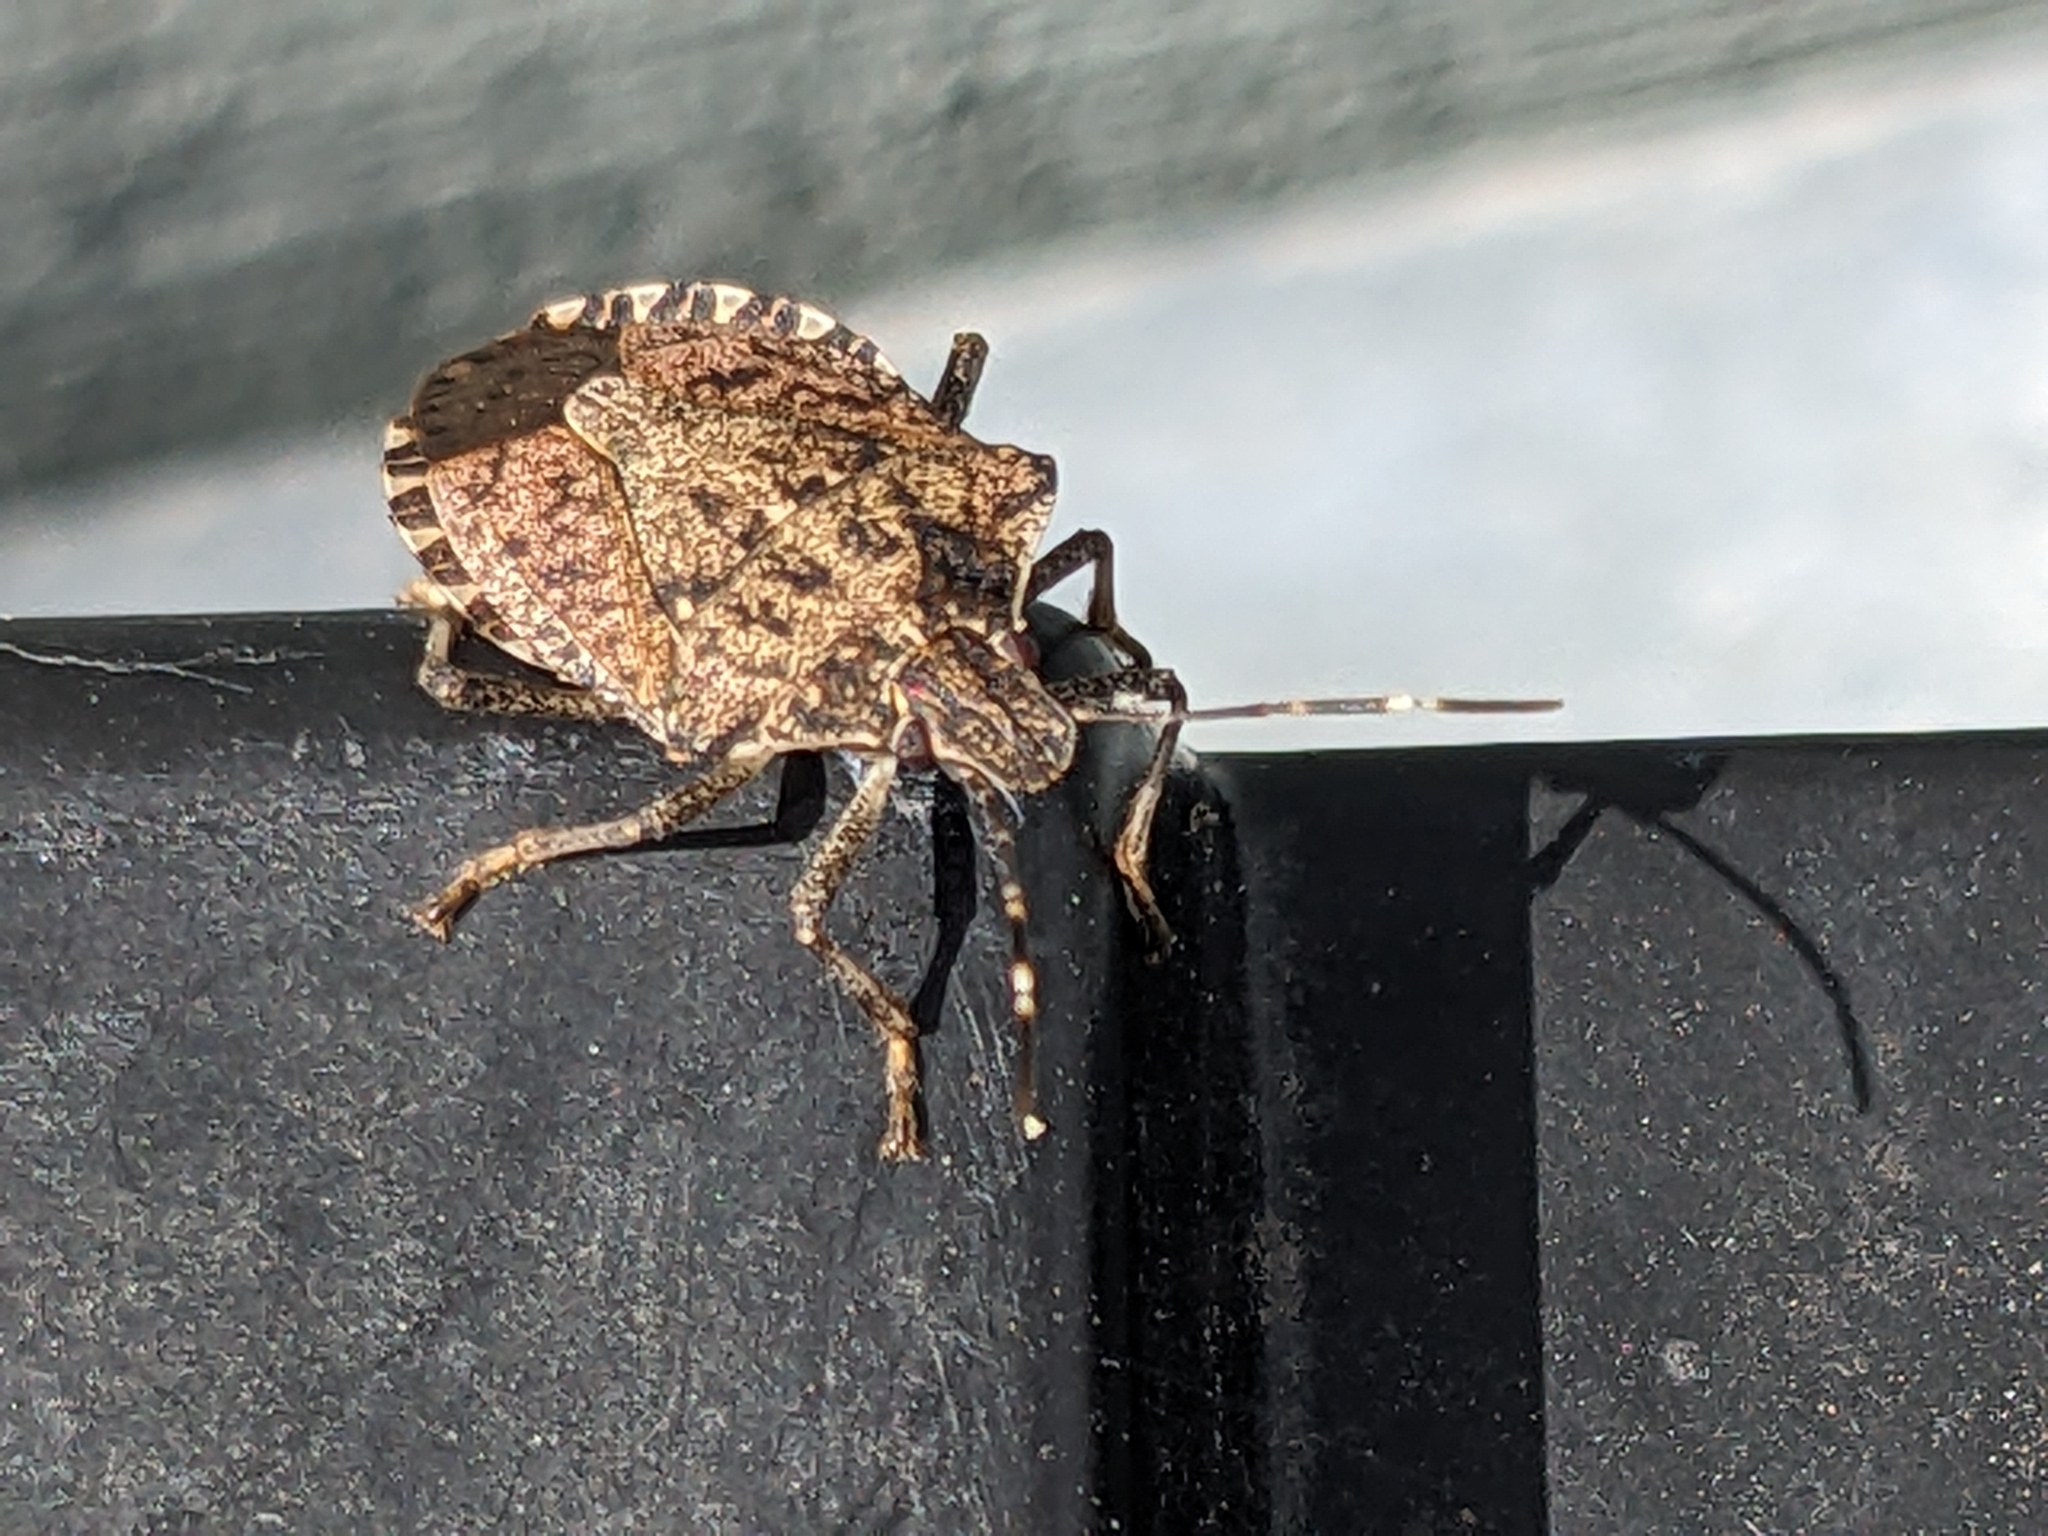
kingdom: Animalia
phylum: Arthropoda
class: Insecta
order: Hemiptera
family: Pentatomidae
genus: Halyomorpha
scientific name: Halyomorpha halys
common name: Brown marmorated stink bug
